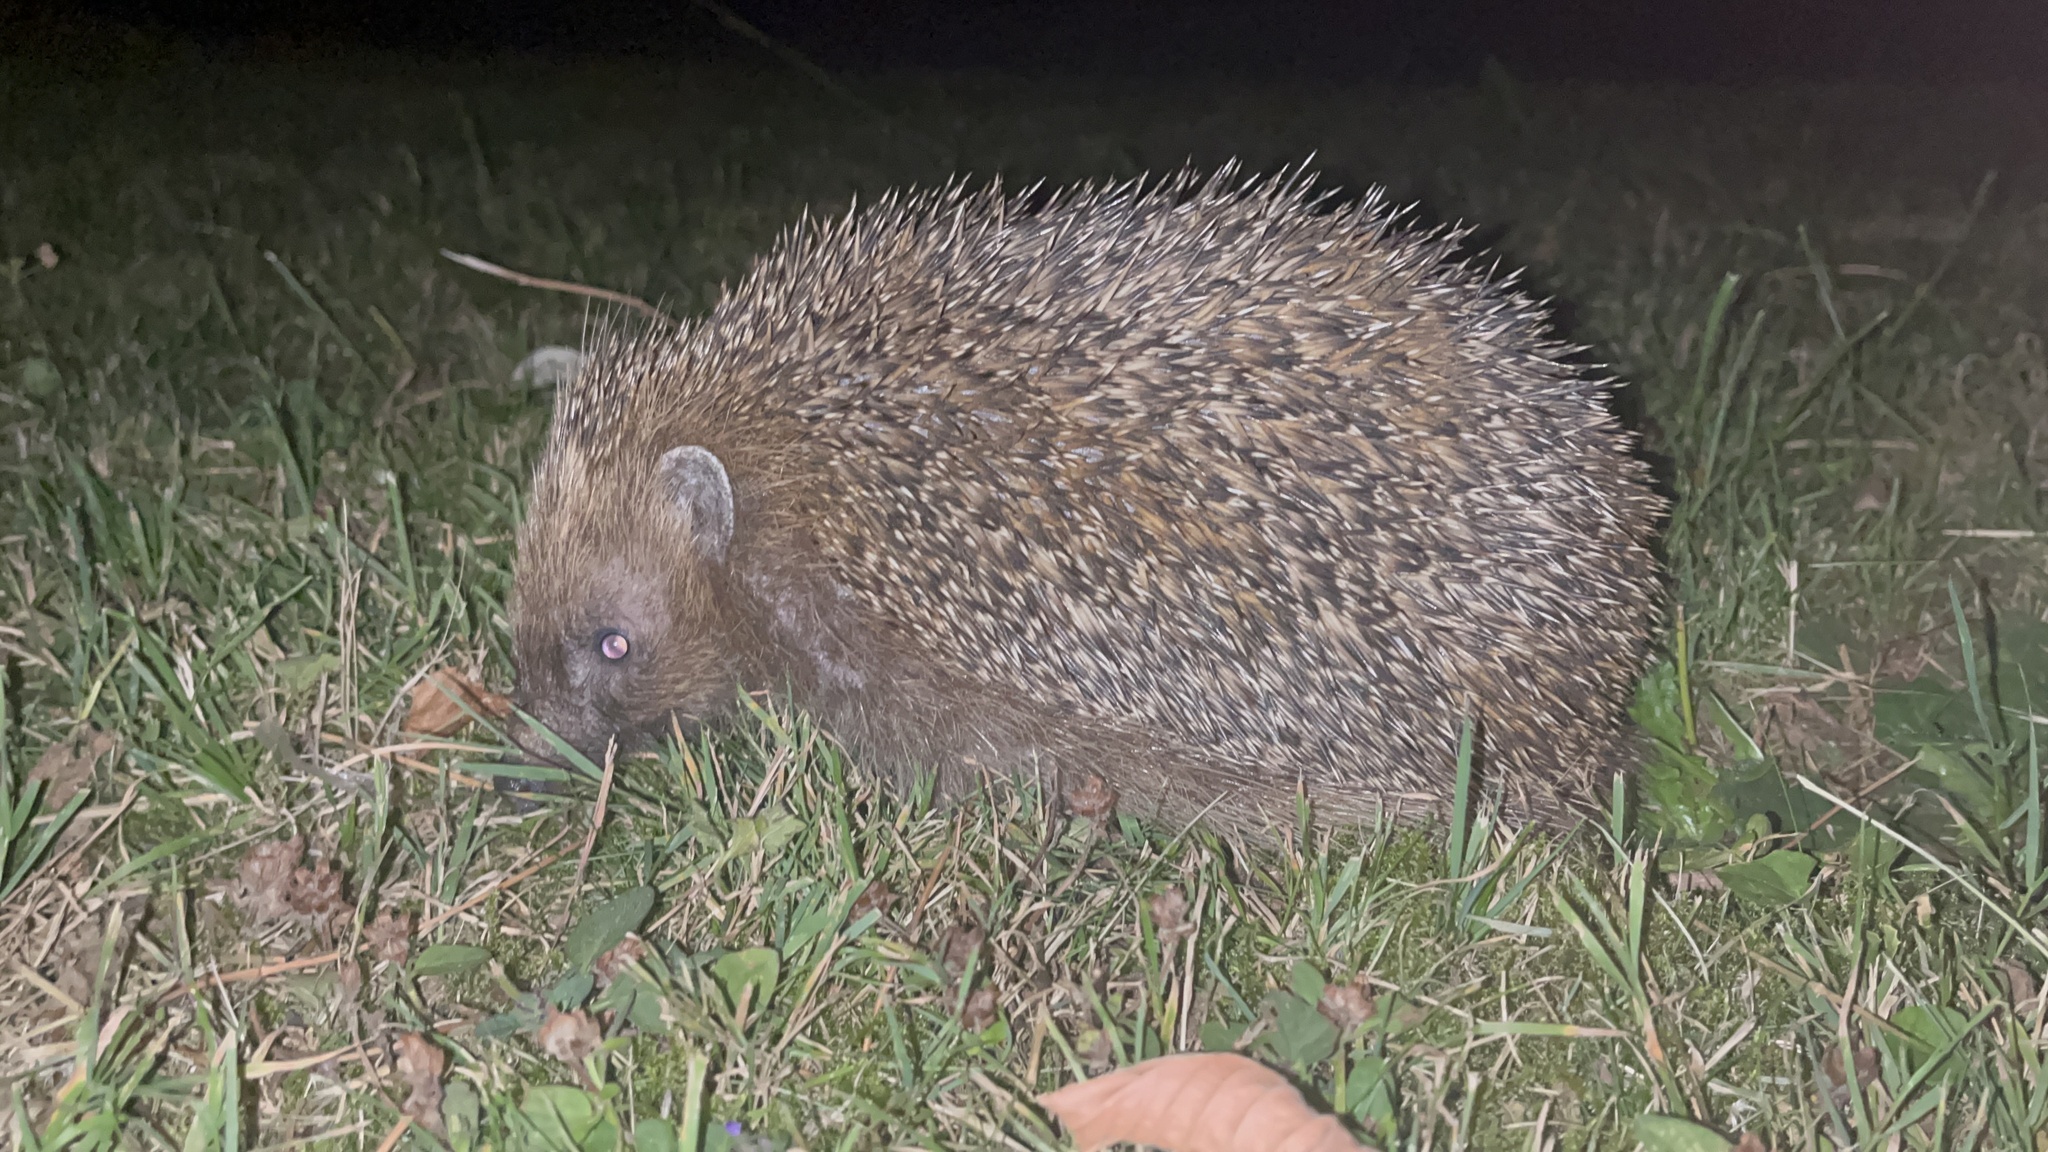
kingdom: Animalia
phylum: Chordata
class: Mammalia
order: Erinaceomorpha
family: Erinaceidae
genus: Erinaceus
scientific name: Erinaceus europaeus
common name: West european hedgehog
